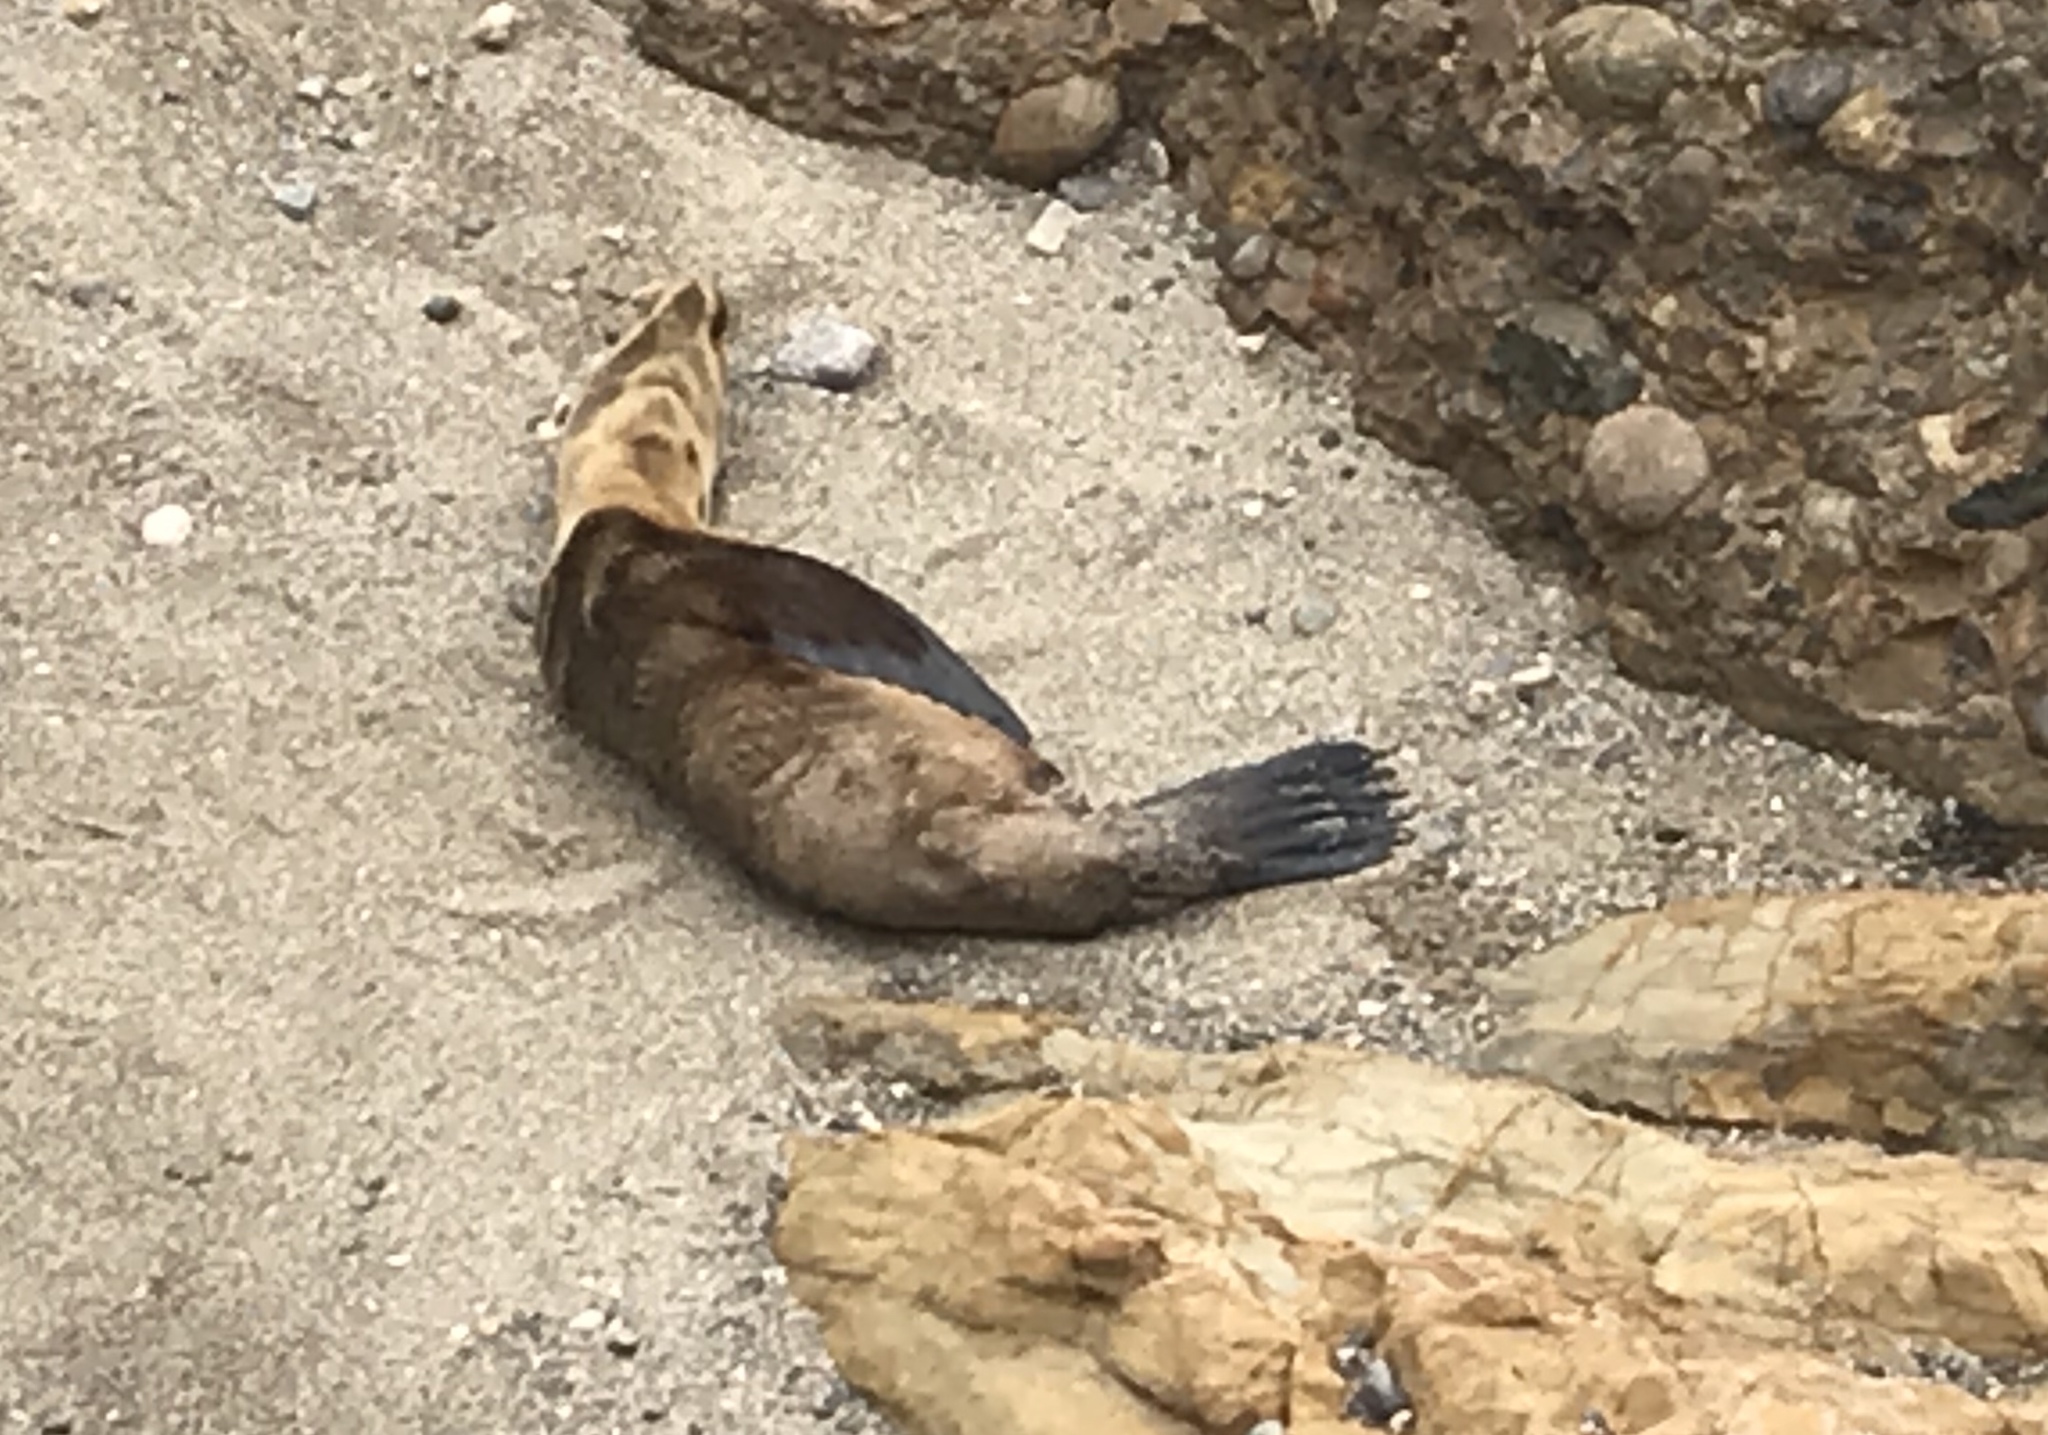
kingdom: Animalia
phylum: Chordata
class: Mammalia
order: Carnivora
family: Otariidae
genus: Zalophus
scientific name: Zalophus californianus
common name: California sea lion
